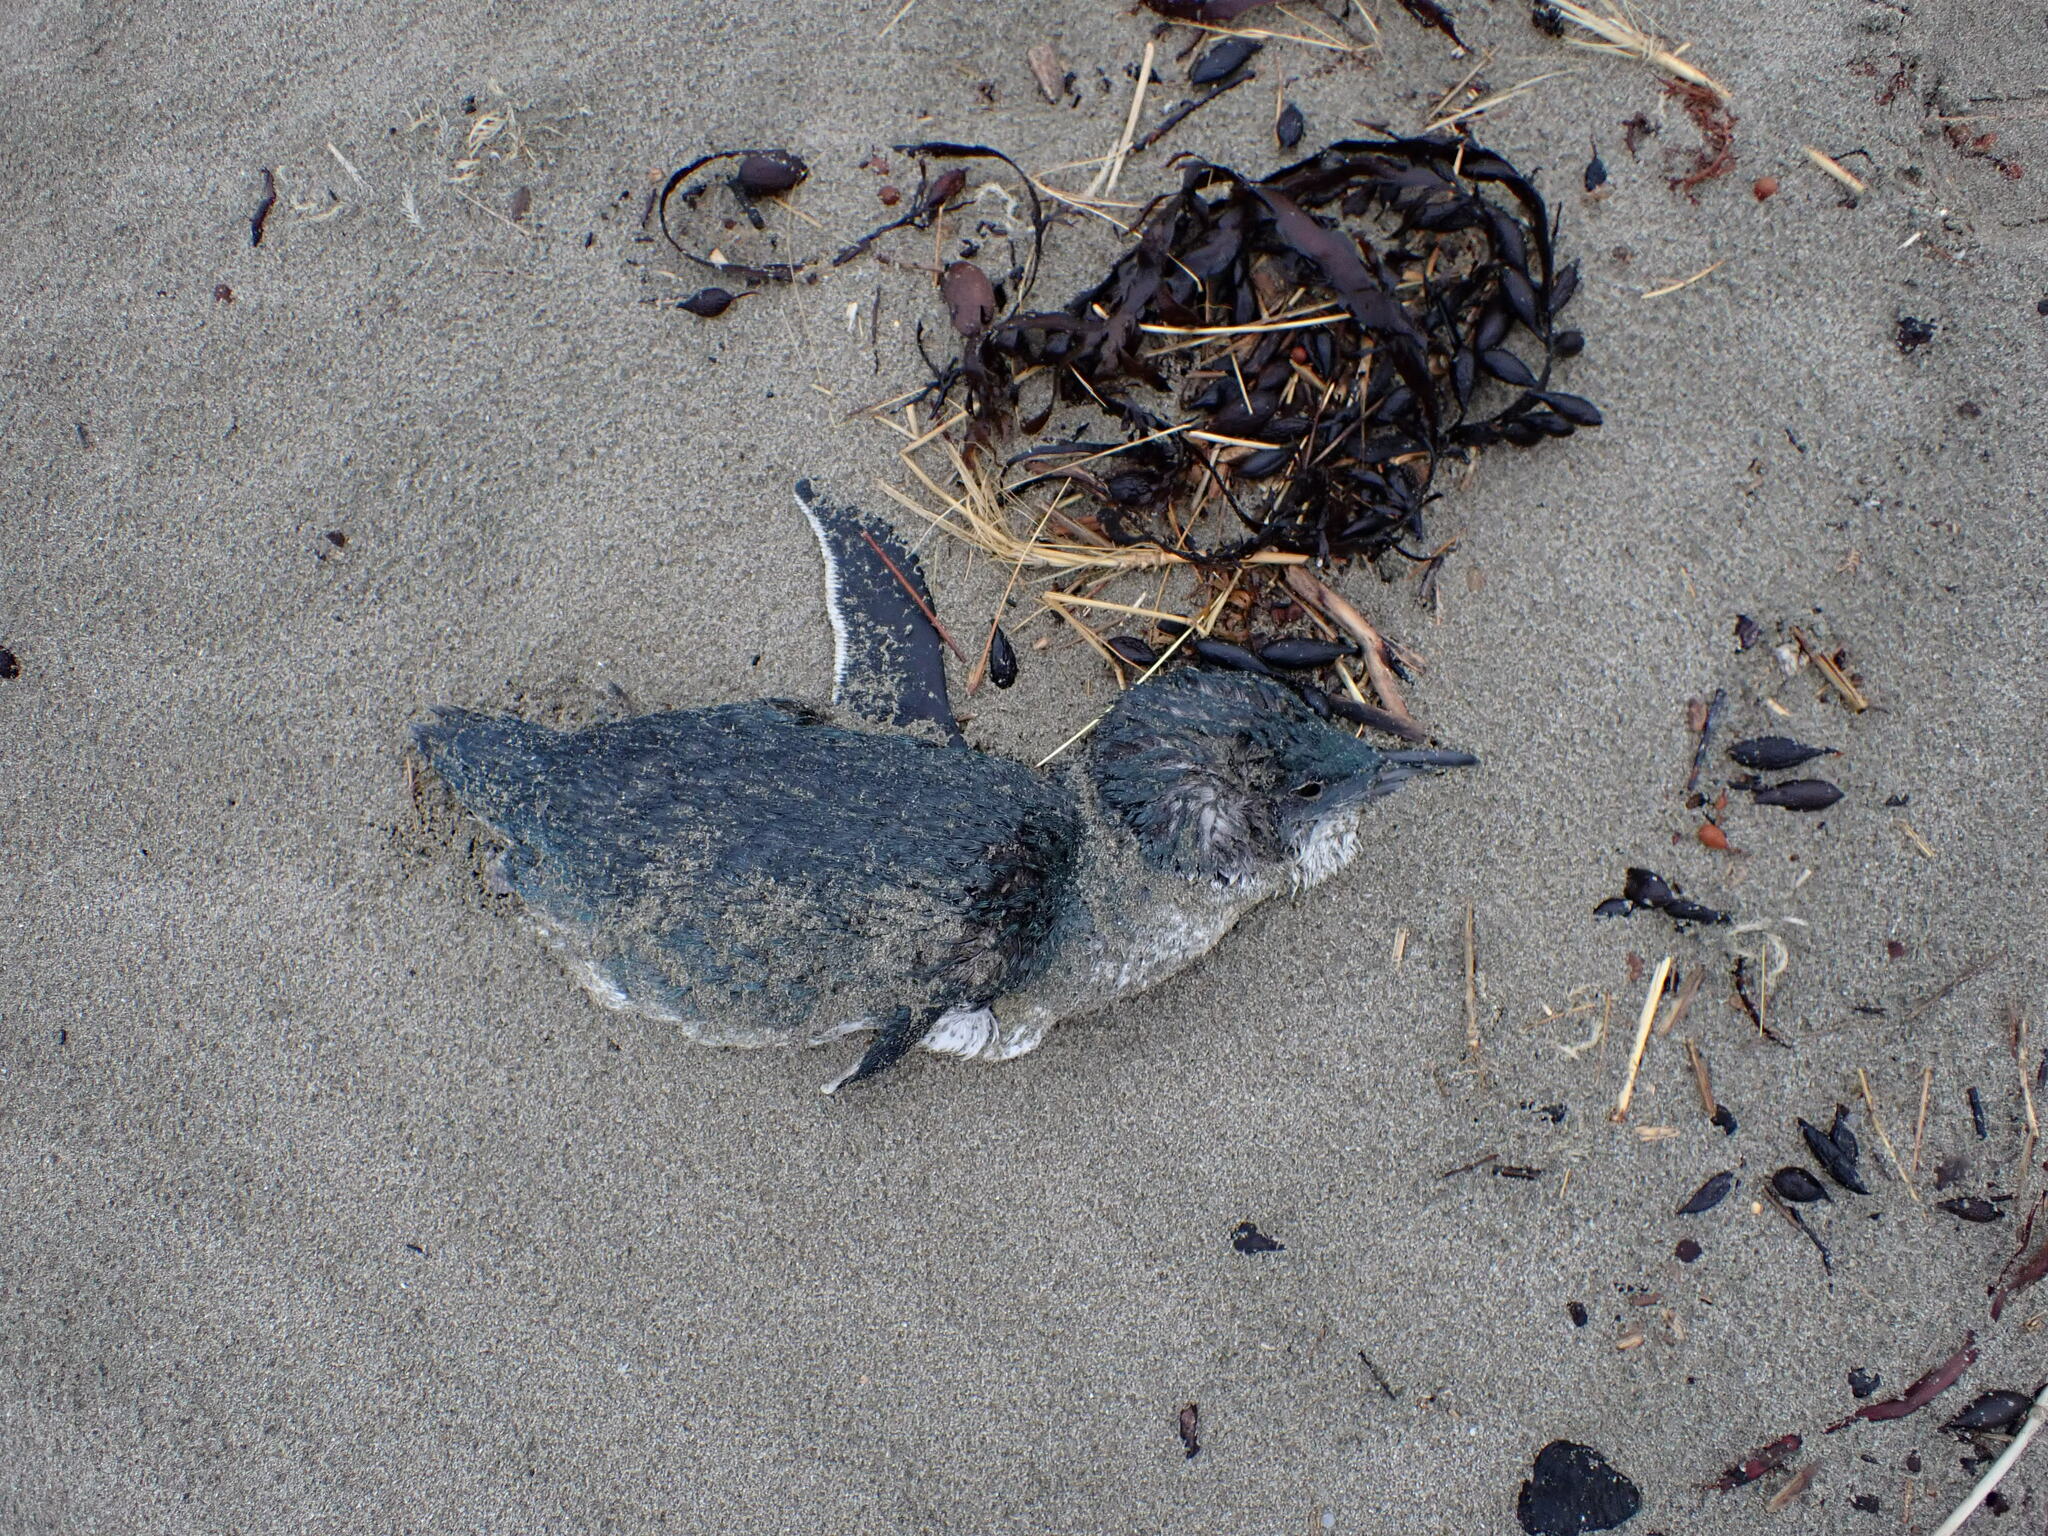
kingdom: Animalia
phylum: Chordata
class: Aves
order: Sphenisciformes
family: Spheniscidae
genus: Eudyptula
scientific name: Eudyptula minor
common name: Little penguin
